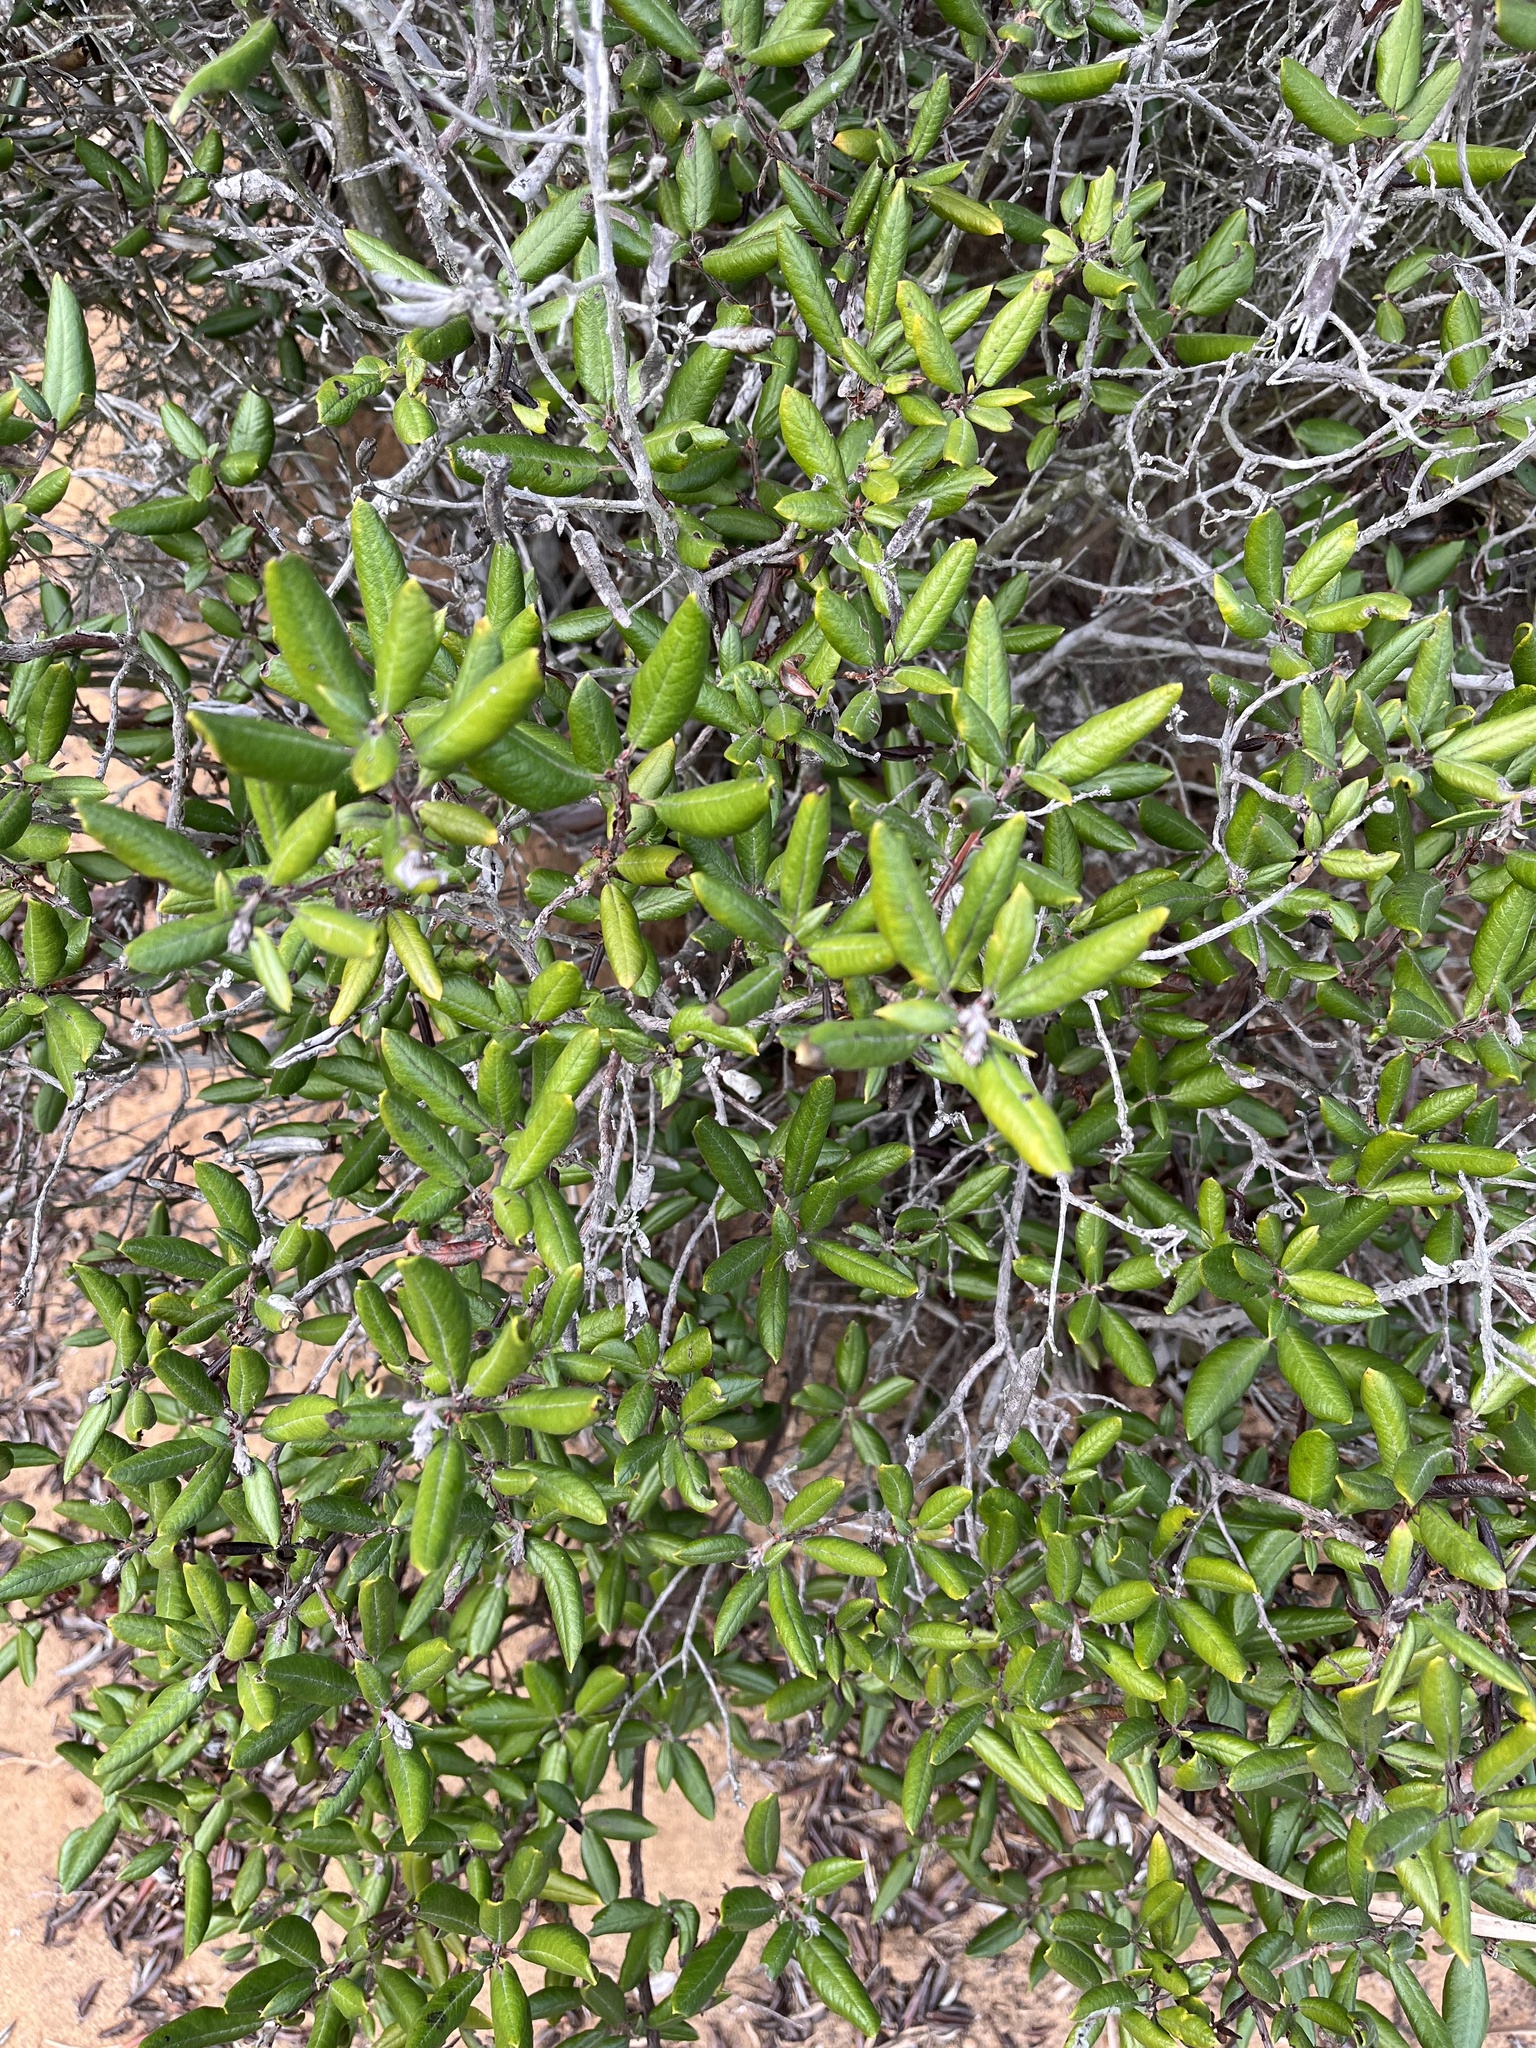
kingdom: Plantae
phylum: Tracheophyta
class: Magnoliopsida
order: Ericales
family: Ericaceae
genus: Arctostaphylos
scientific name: Arctostaphylos bicolor
